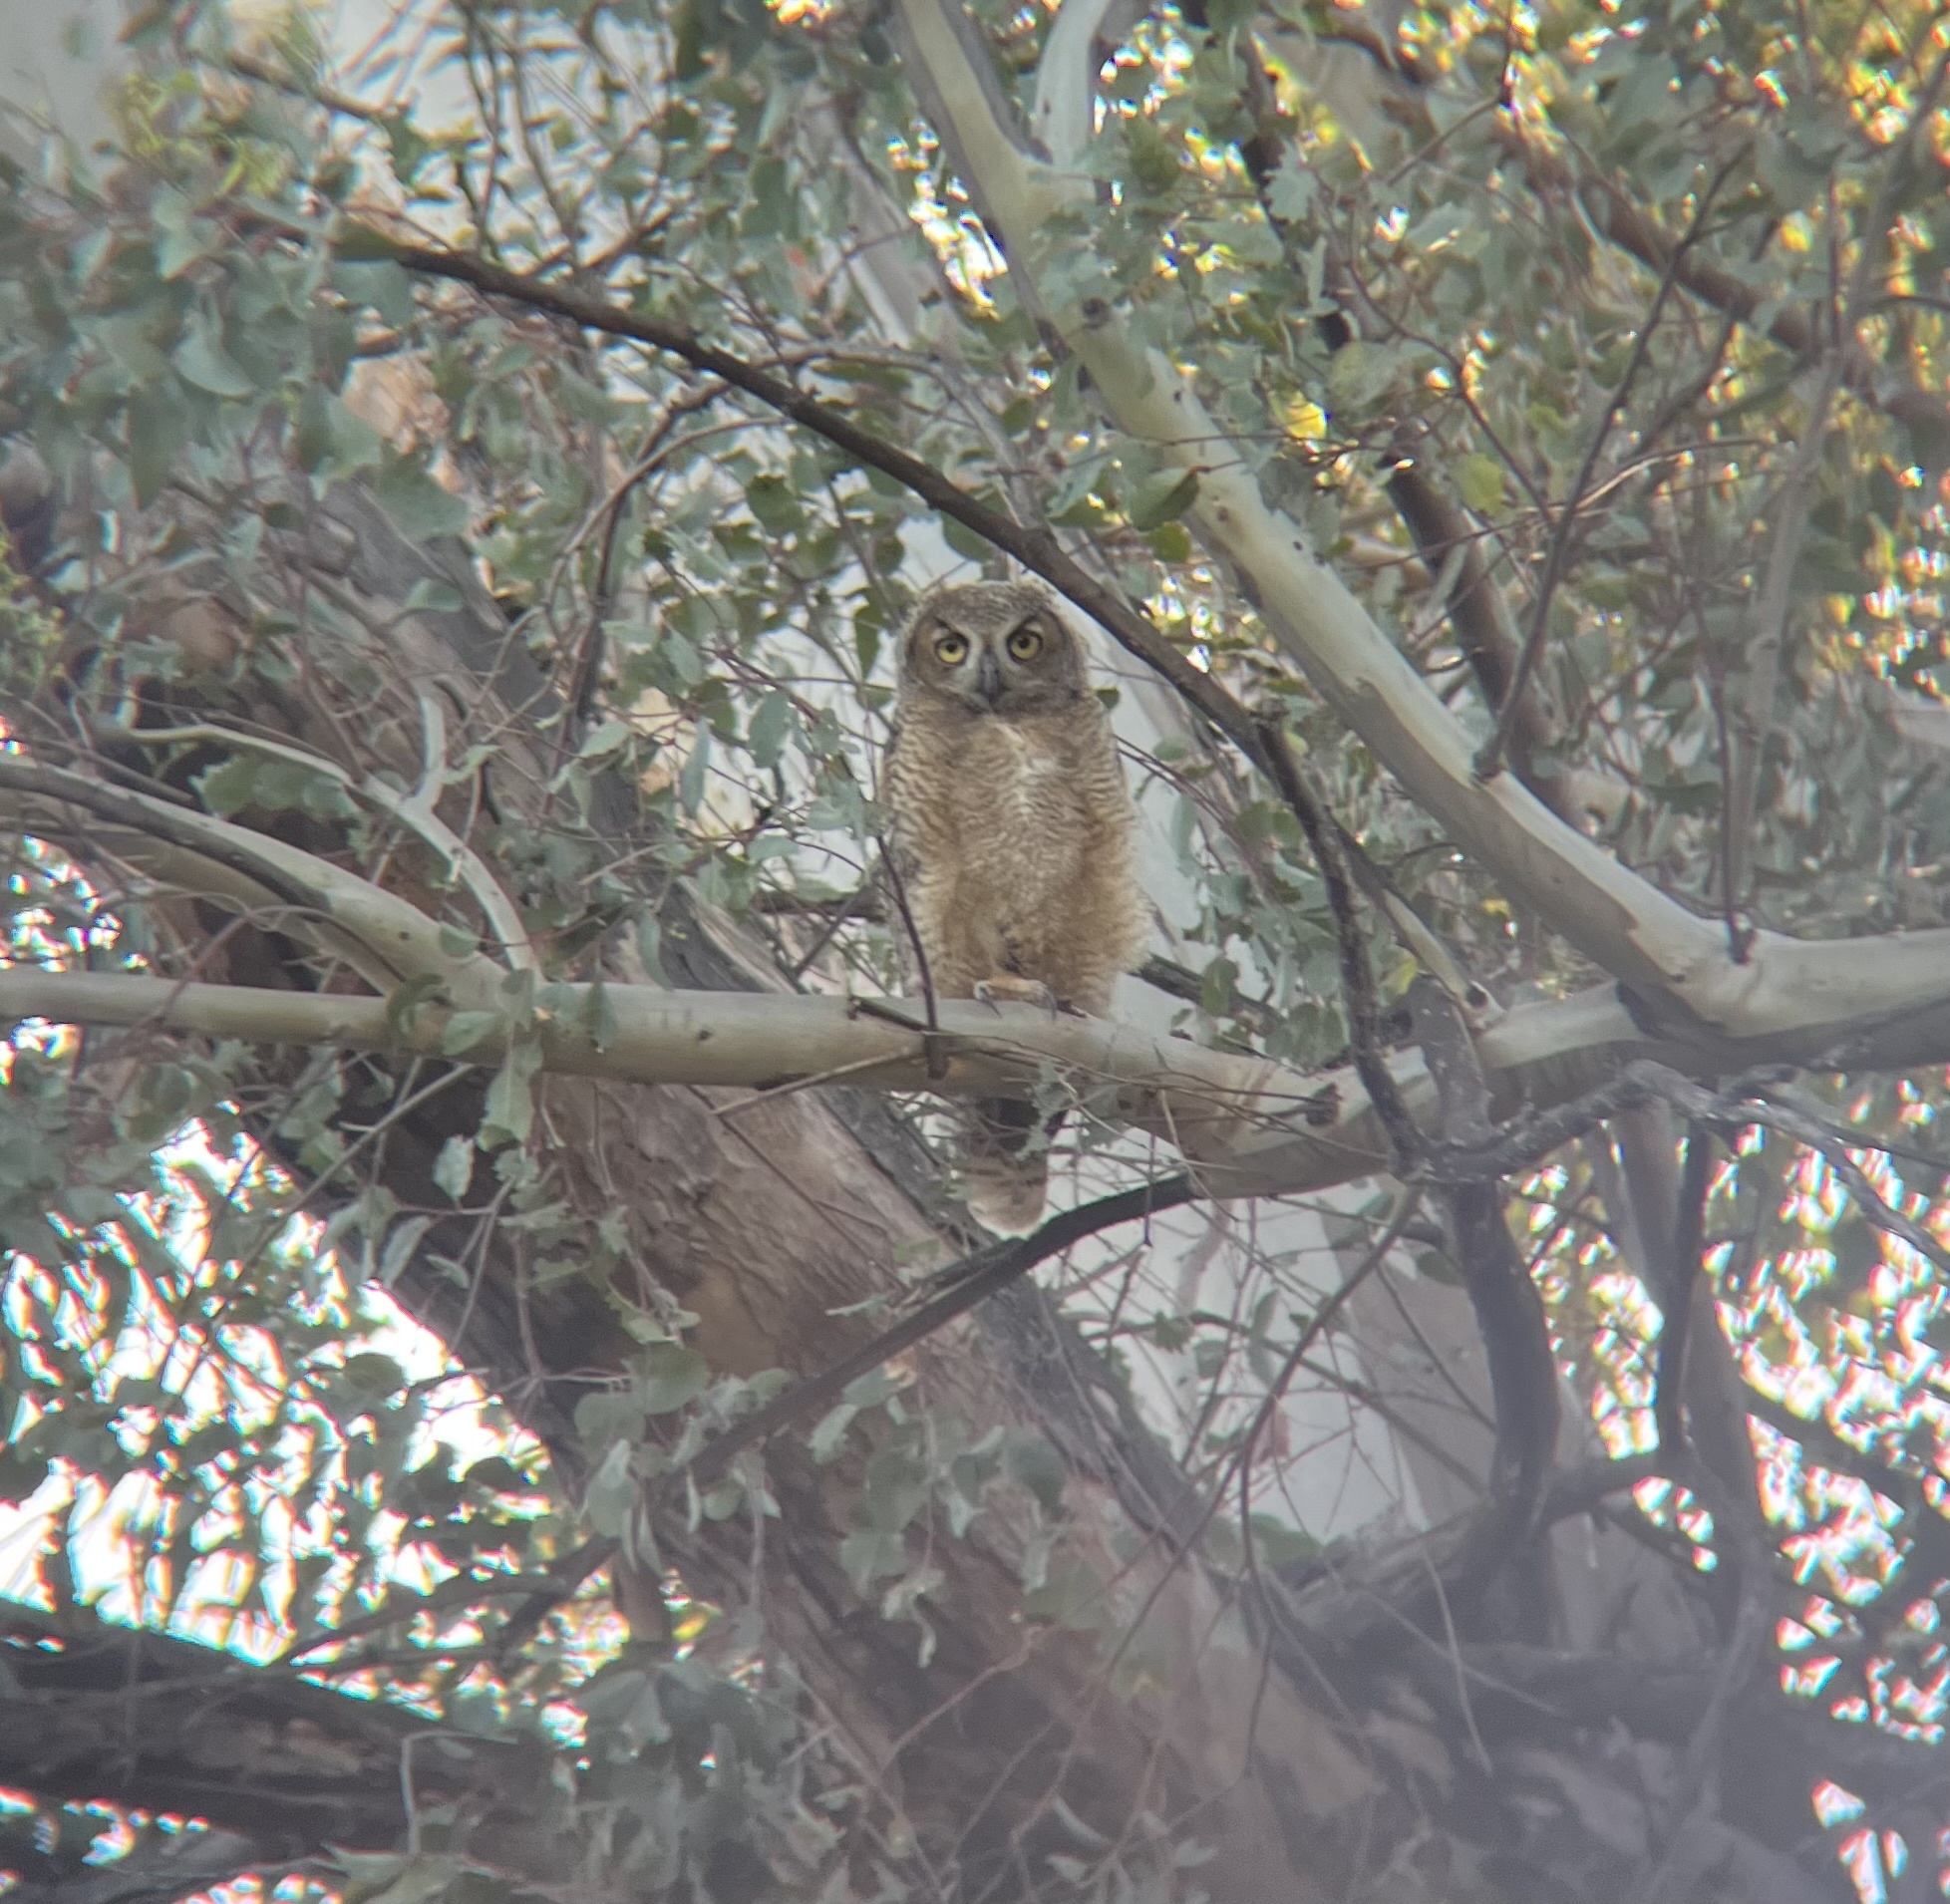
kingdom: Animalia
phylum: Chordata
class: Aves
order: Strigiformes
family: Strigidae
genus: Bubo
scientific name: Bubo virginianus
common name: Great horned owl
